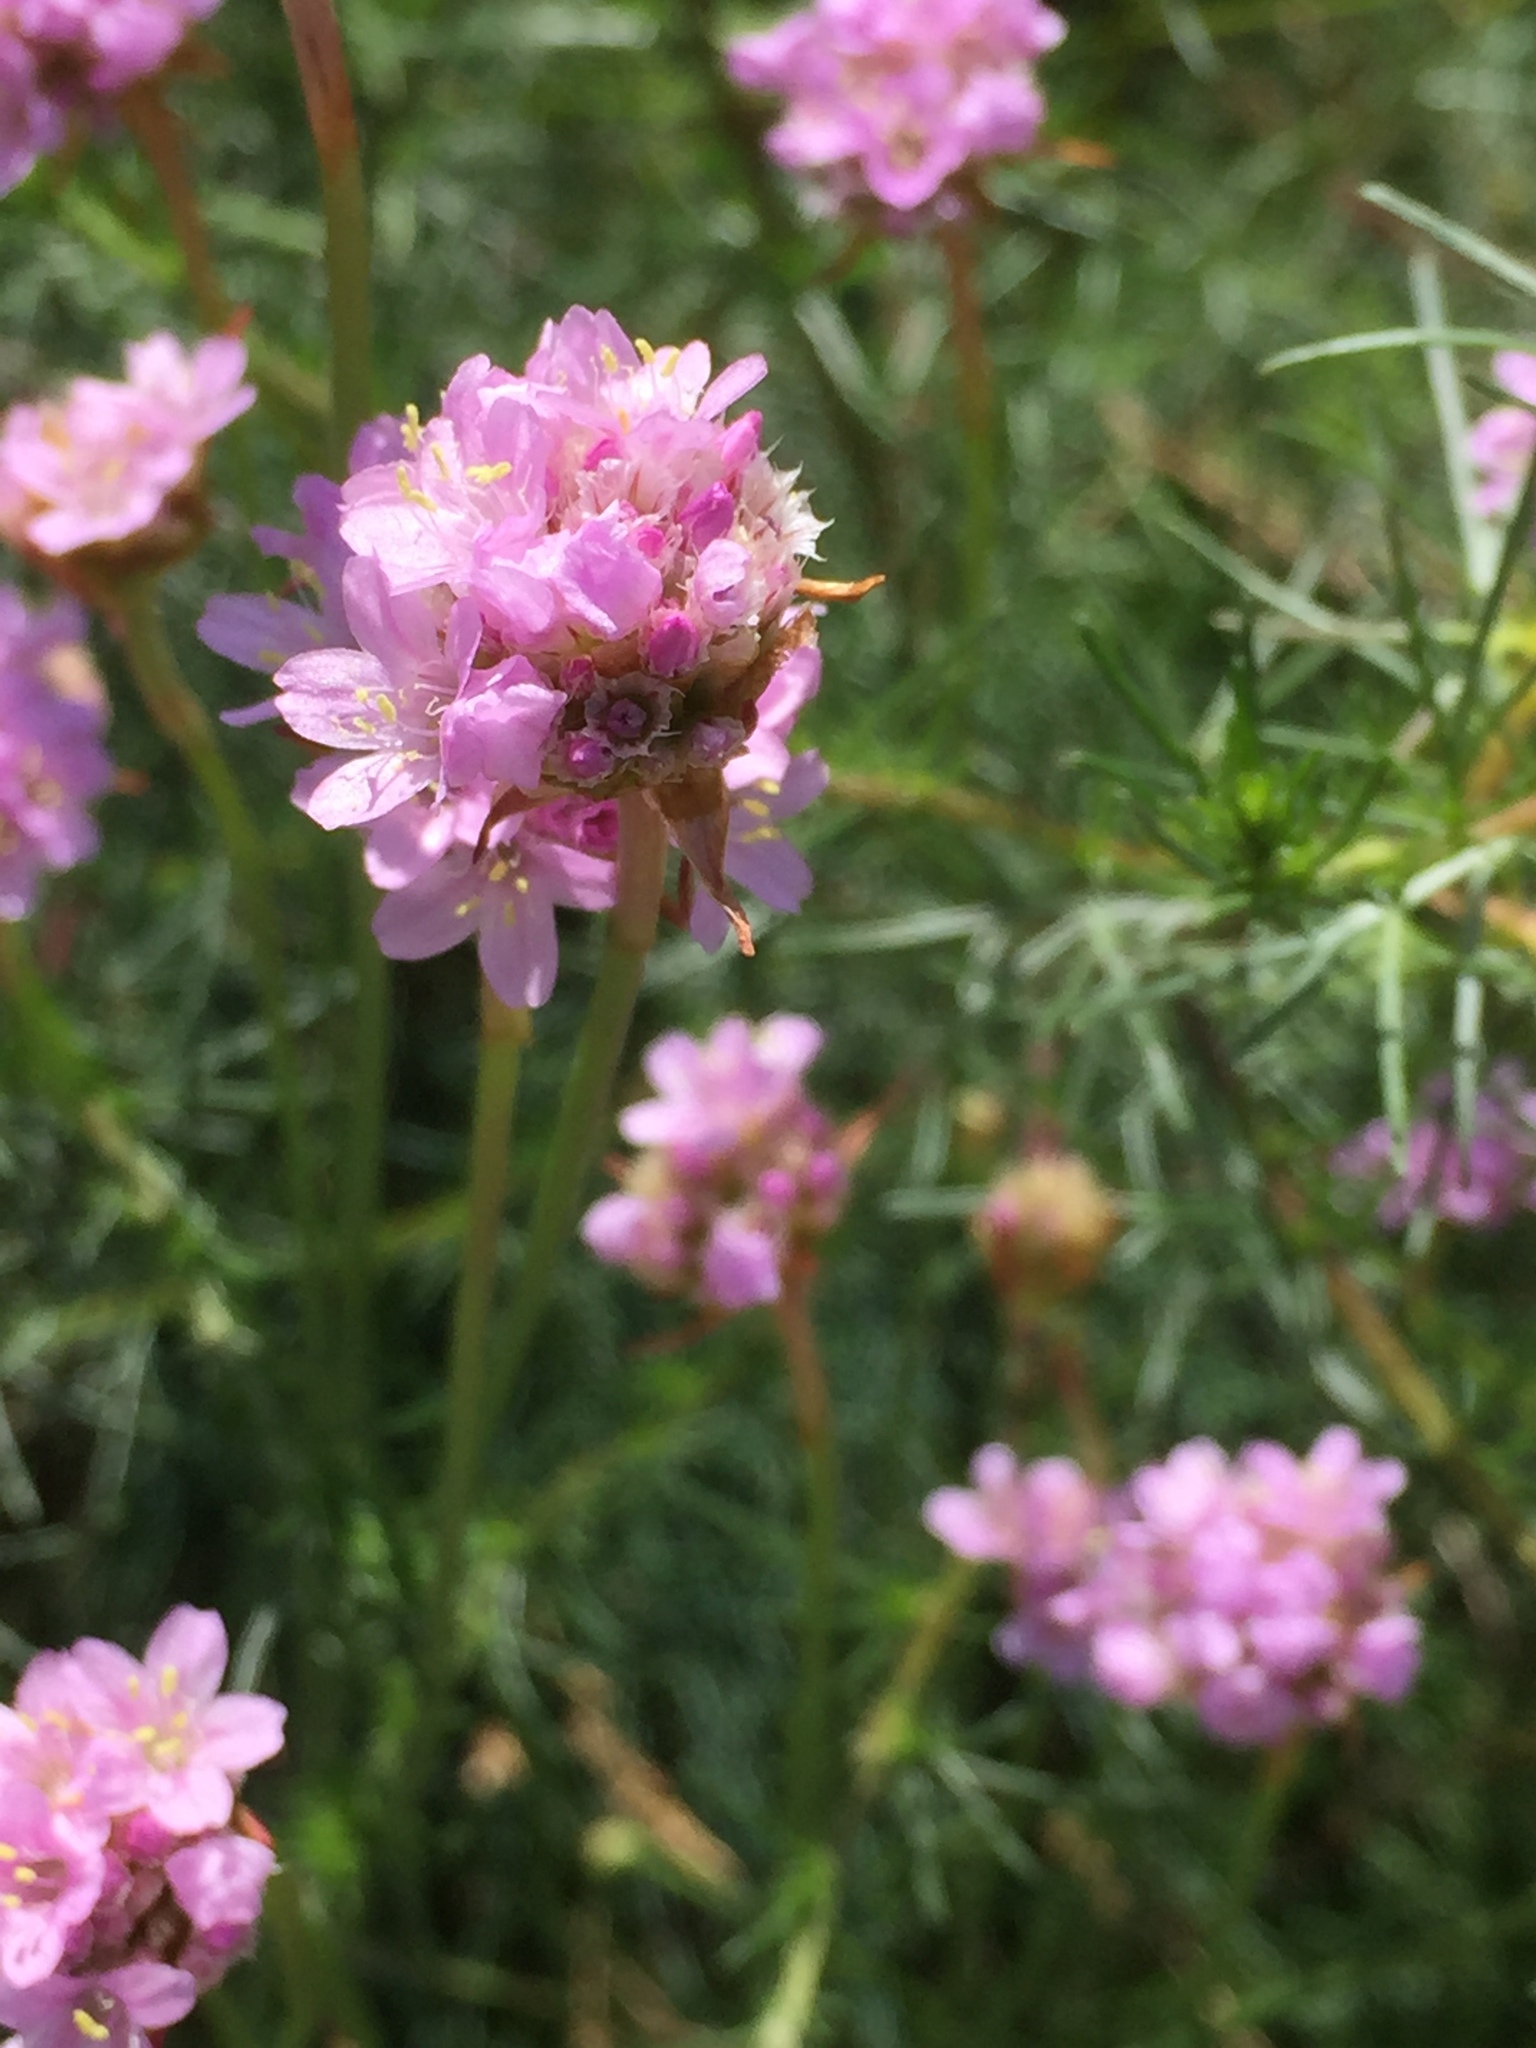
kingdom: Plantae
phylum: Tracheophyta
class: Magnoliopsida
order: Caryophyllales
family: Plumbaginaceae
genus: Armeria
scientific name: Armeria maritima
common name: Thrift
